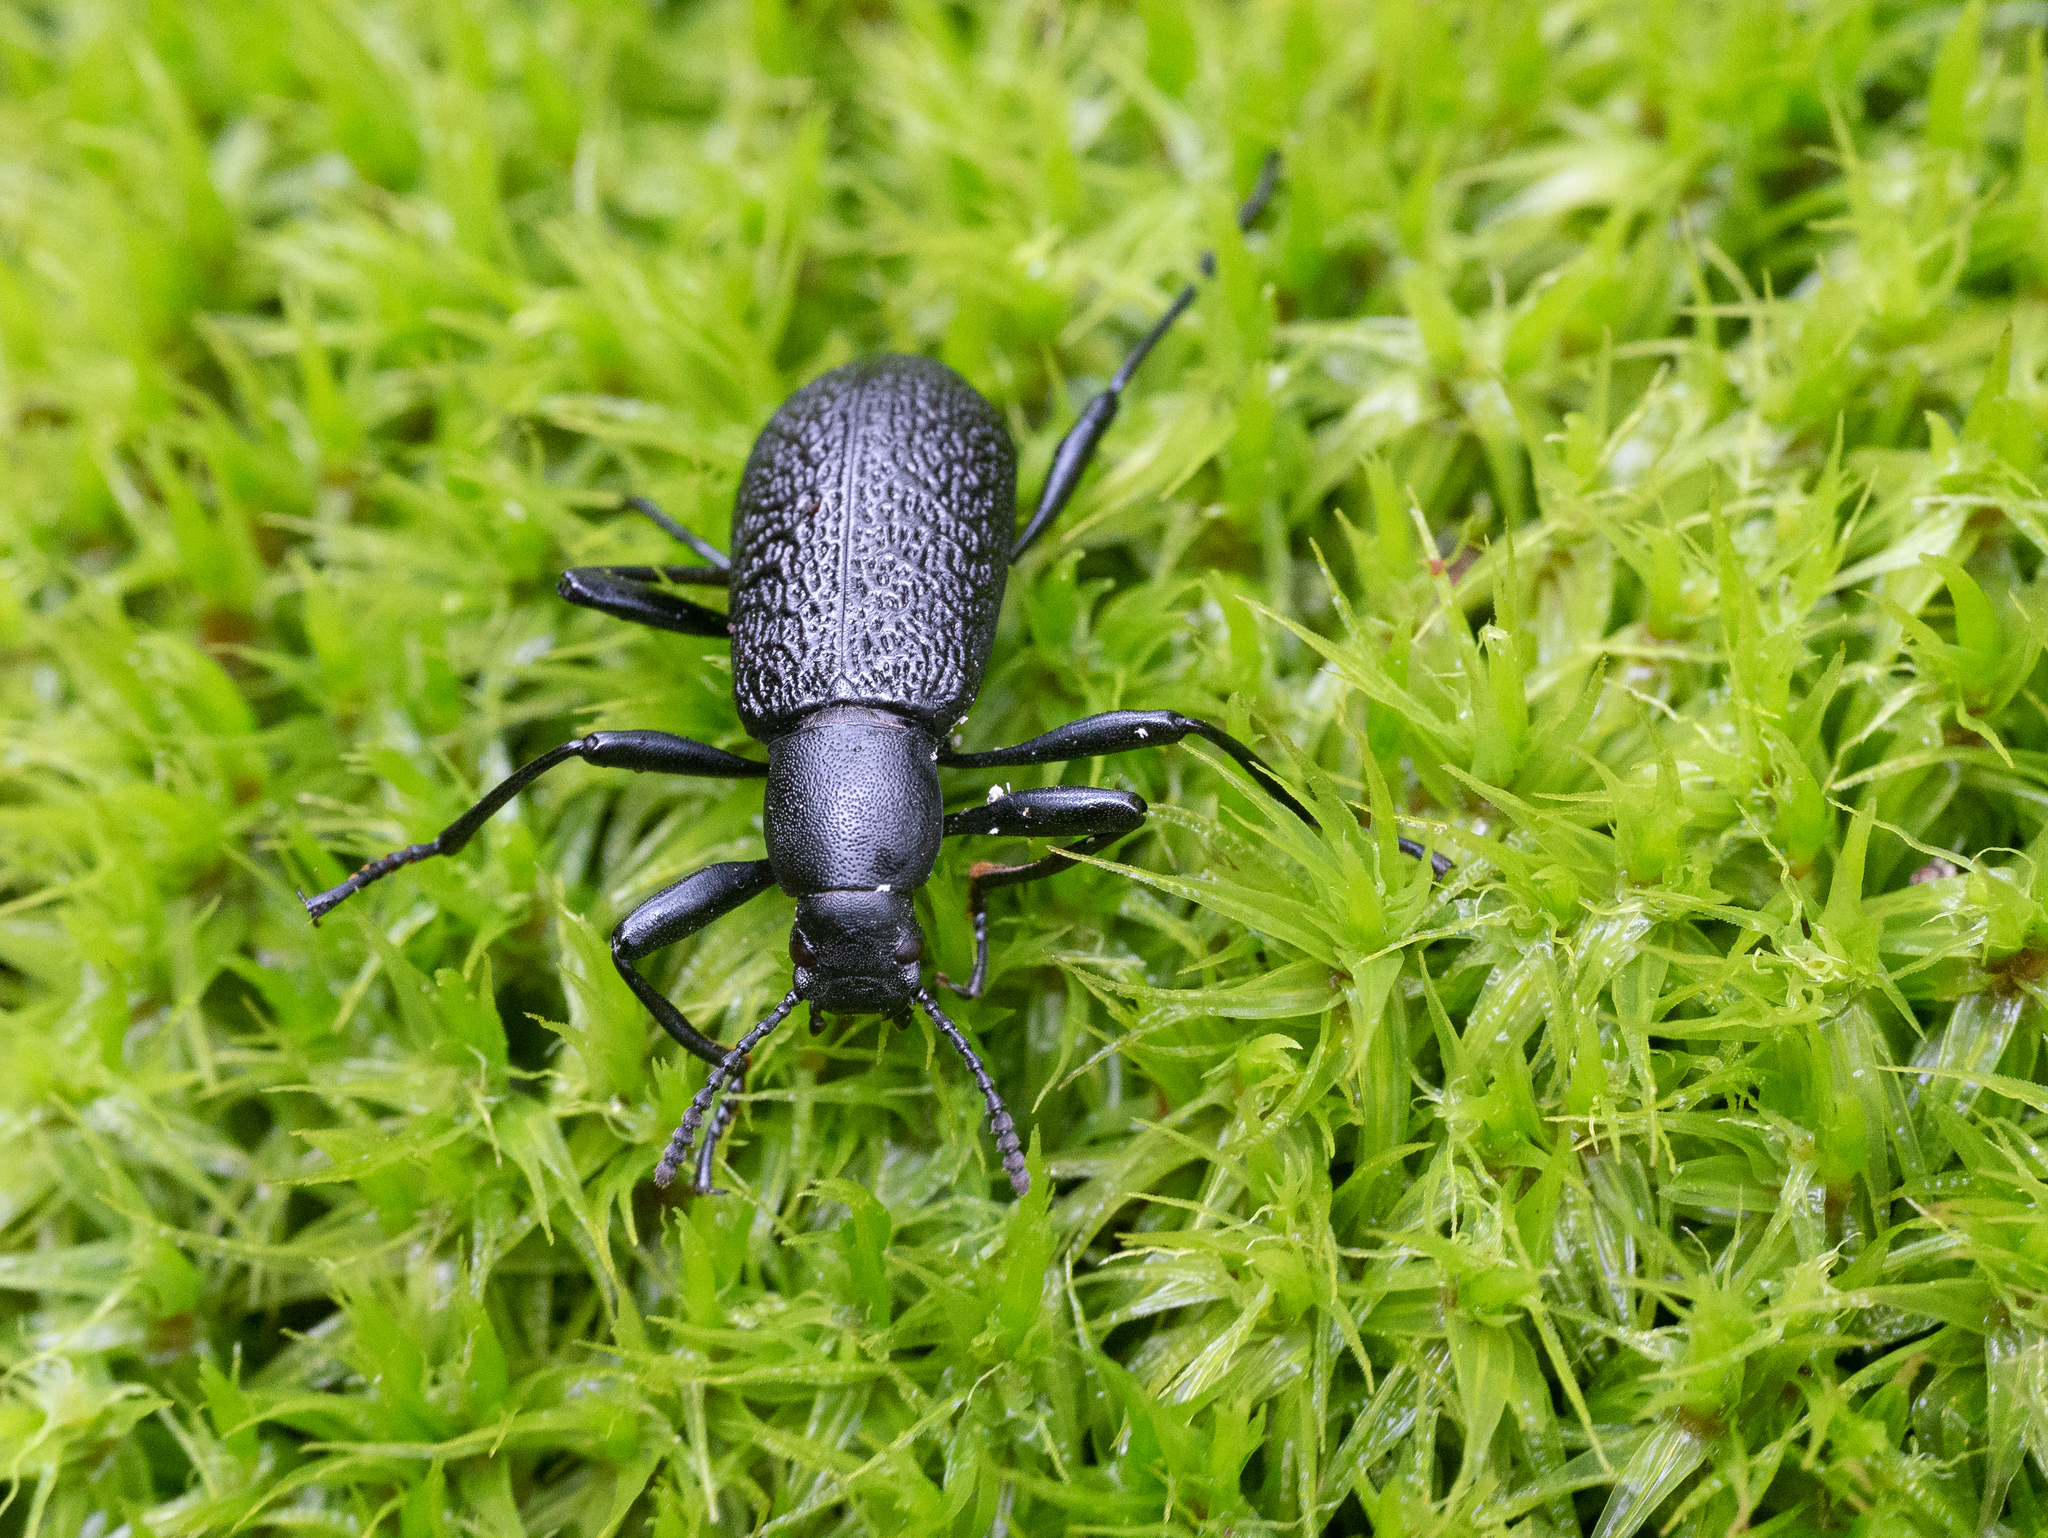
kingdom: Animalia
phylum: Arthropoda
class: Insecta
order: Coleoptera
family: Tenebrionidae
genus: Upis
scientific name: Upis ceramboides
